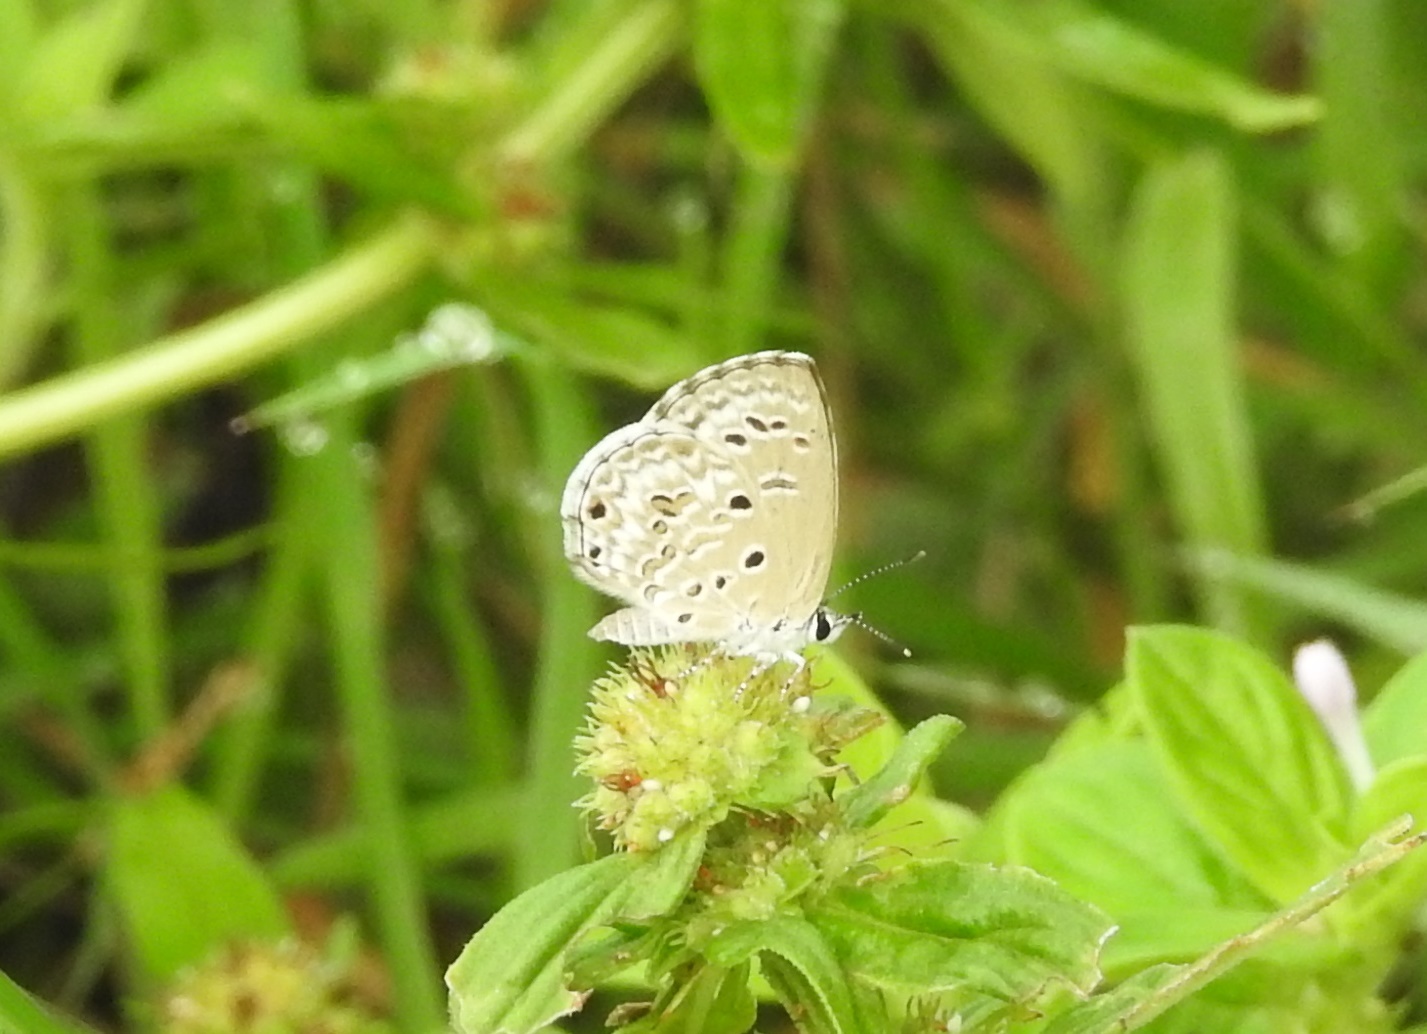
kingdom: Animalia
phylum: Arthropoda
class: Insecta
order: Lepidoptera
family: Lycaenidae
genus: Chilades
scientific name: Chilades laius
